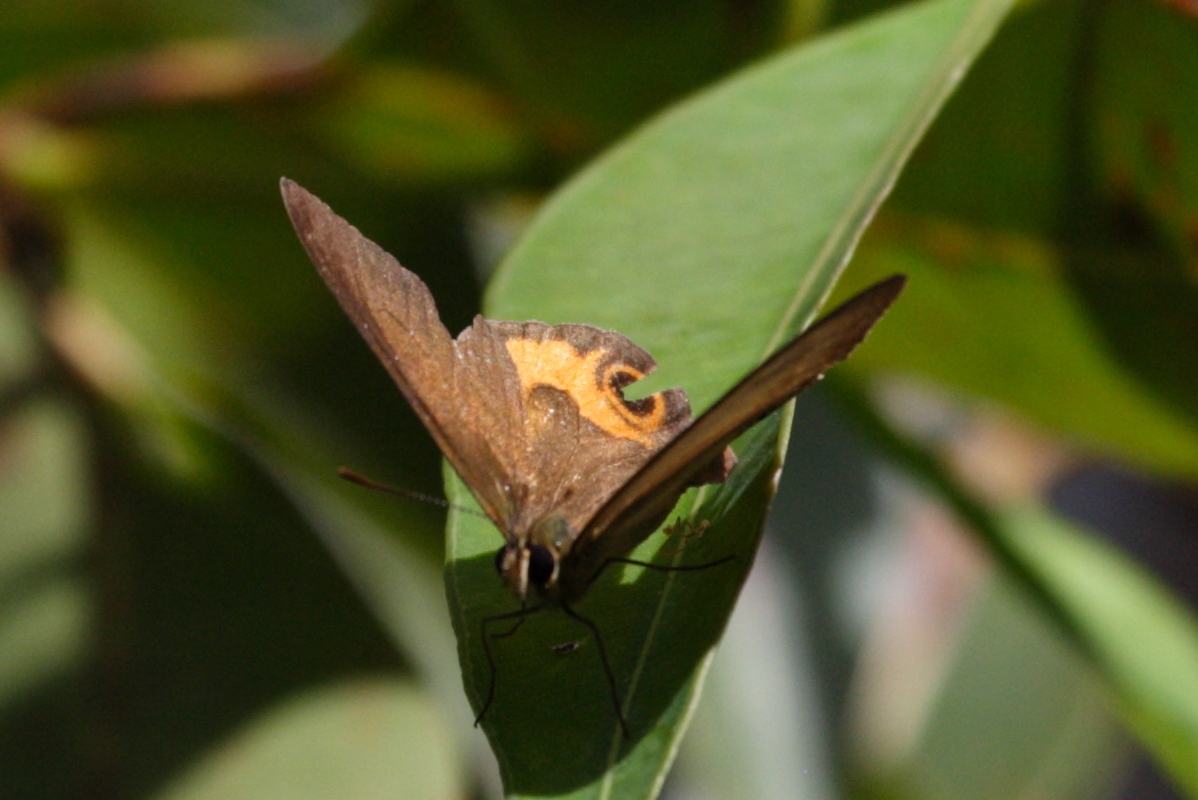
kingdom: Animalia
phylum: Arthropoda
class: Insecta
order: Lepidoptera
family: Nymphalidae
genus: Hypocysta
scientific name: Hypocysta metirius
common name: Brown ringlet
